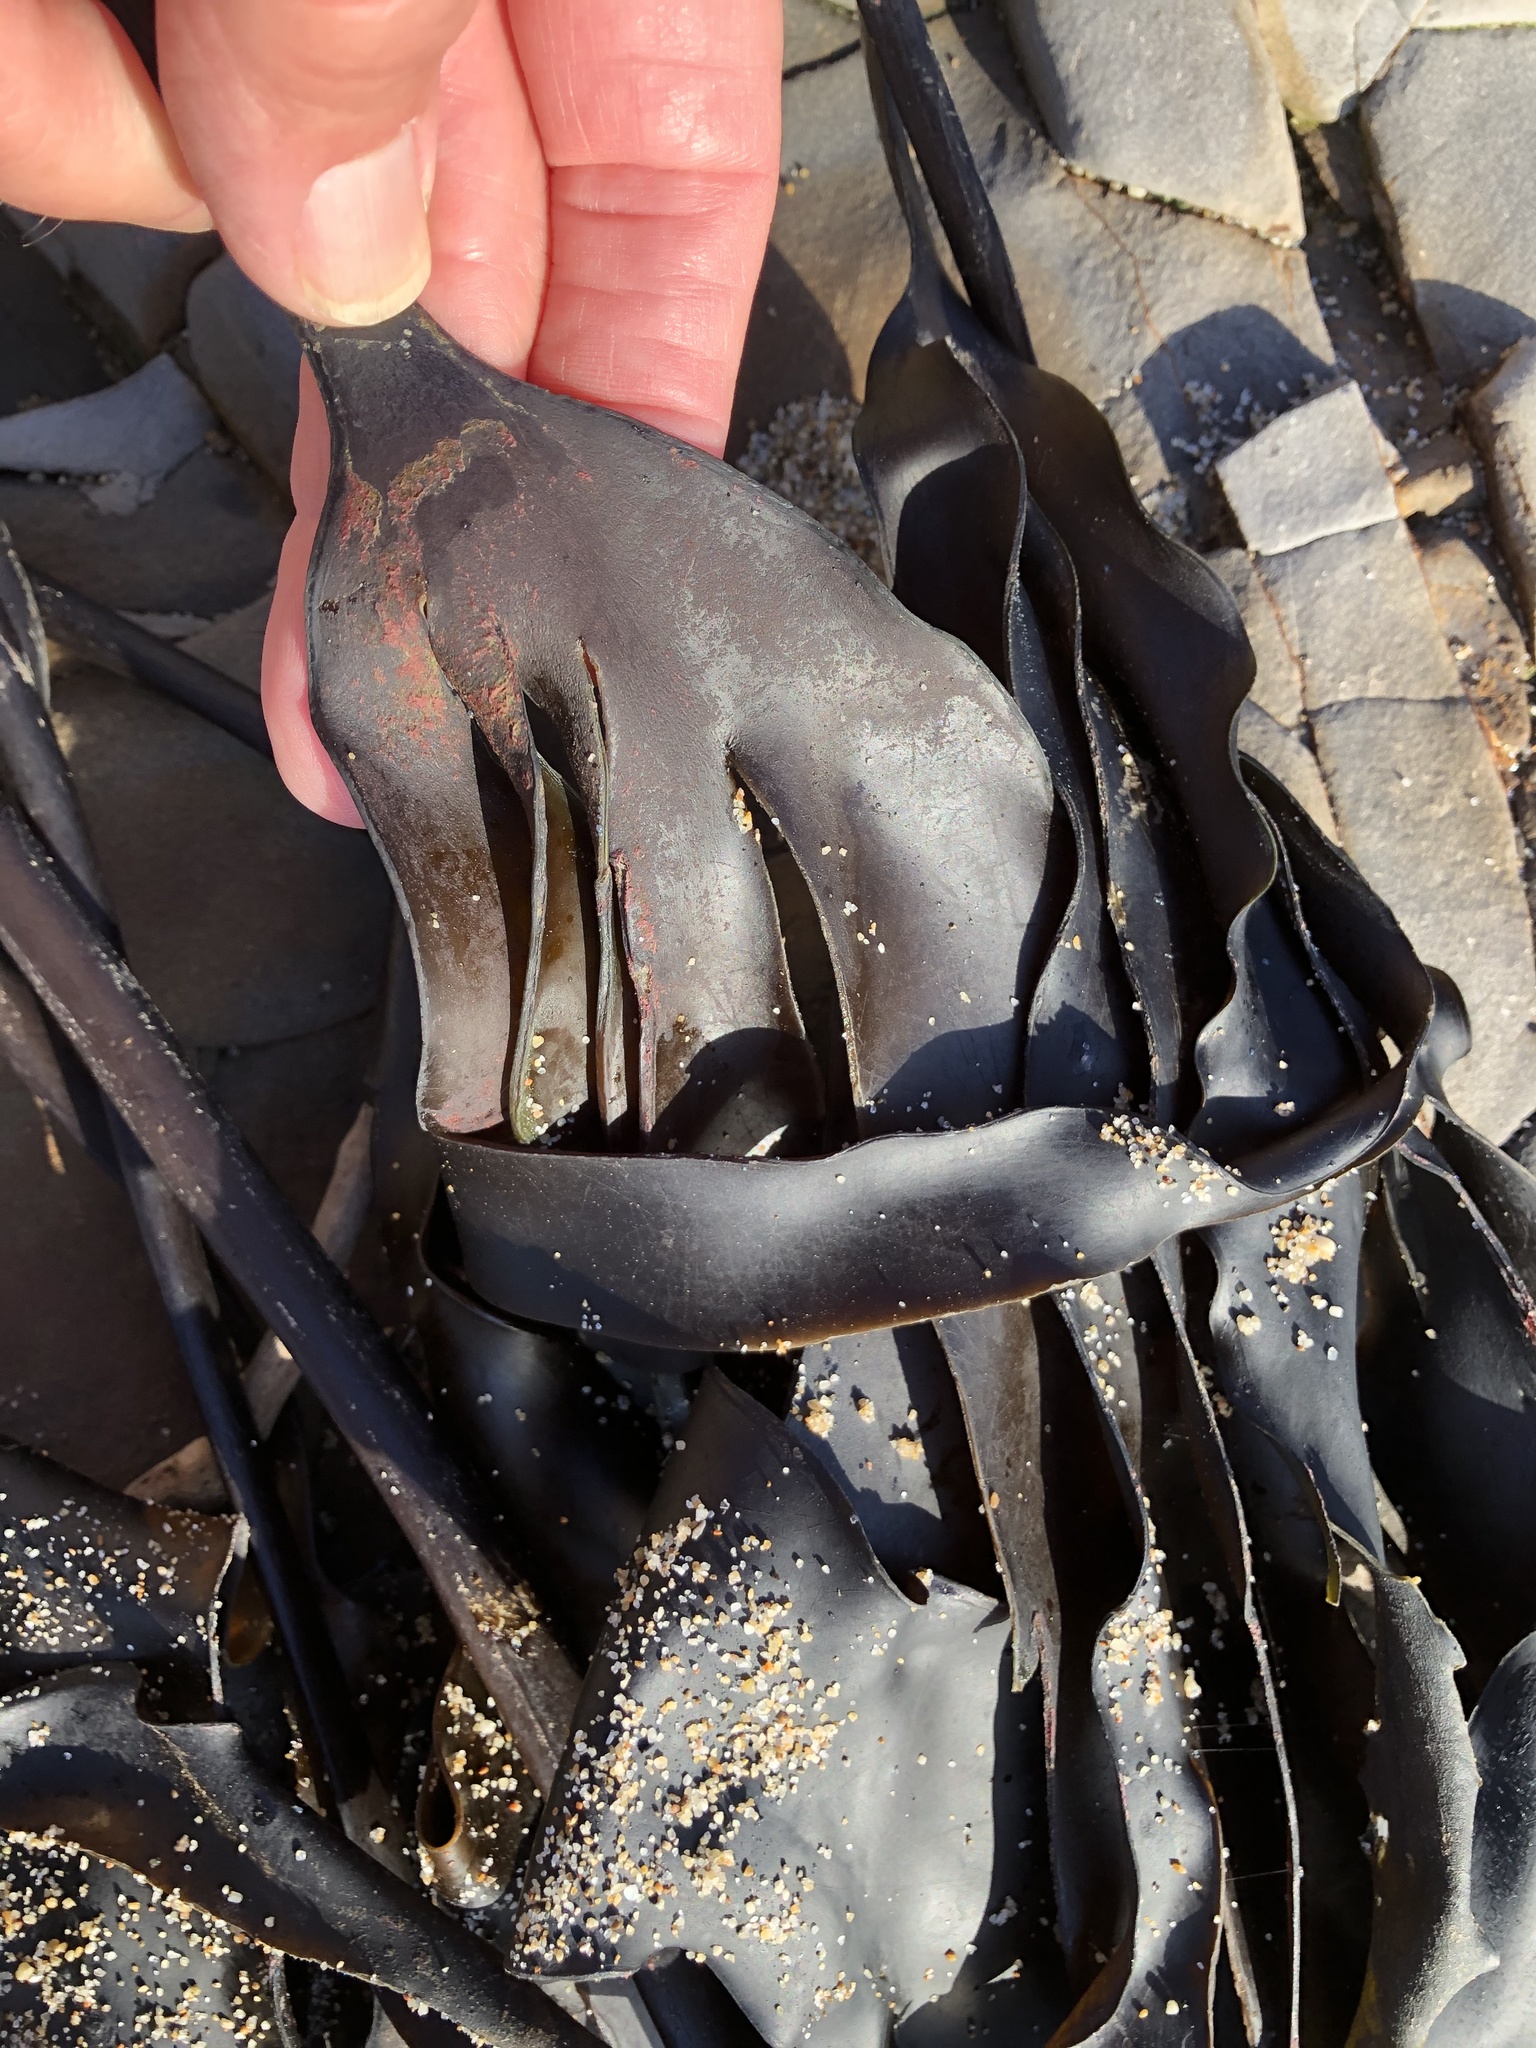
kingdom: Chromista
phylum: Ochrophyta
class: Phaeophyceae
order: Laminariales
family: Laminariaceae
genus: Laminaria
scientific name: Laminaria setchellii
